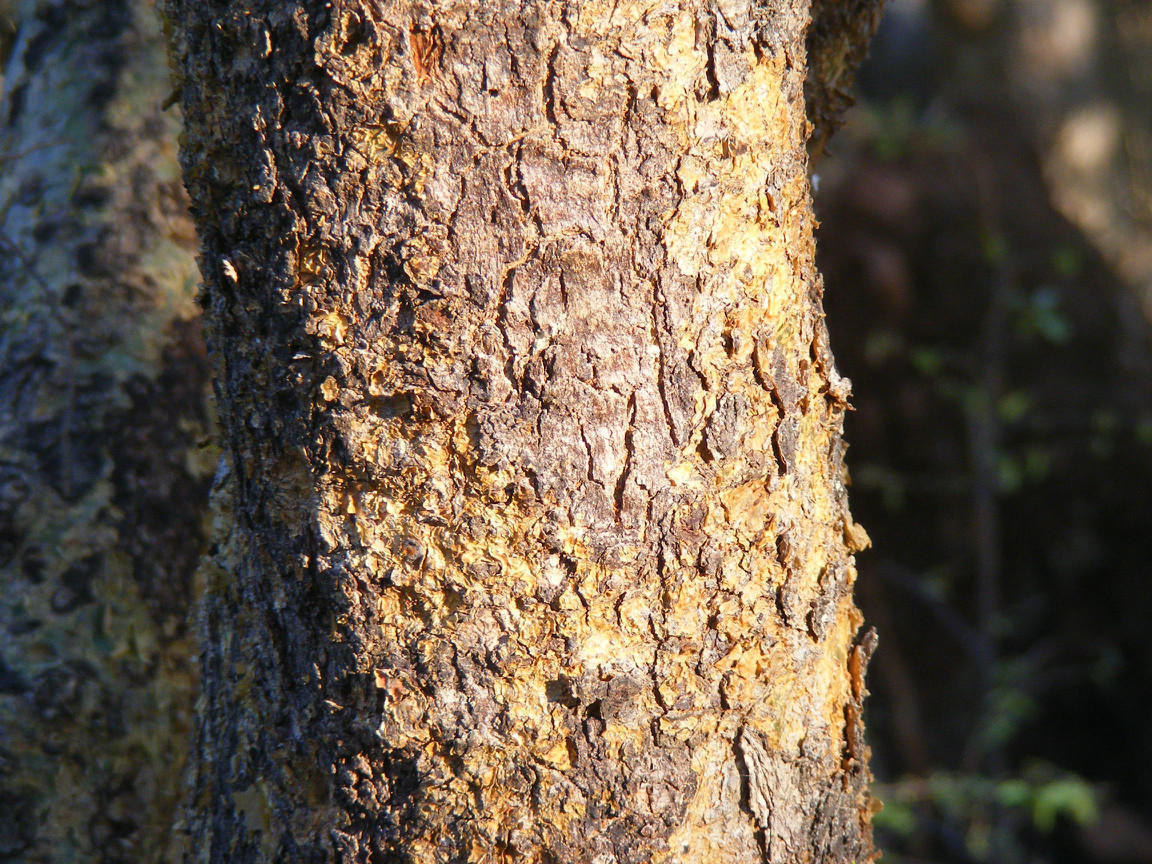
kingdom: Plantae
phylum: Tracheophyta
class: Magnoliopsida
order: Sapindales
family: Burseraceae
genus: Commiphora
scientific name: Commiphora schimperi
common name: Glossy-leaved corkwood
